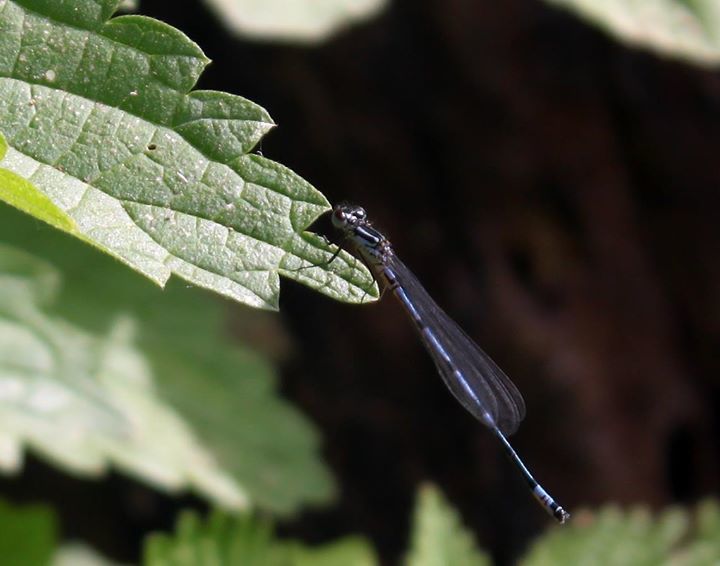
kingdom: Animalia
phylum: Arthropoda
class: Insecta
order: Odonata
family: Coenagrionidae
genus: Coenagrion
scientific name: Coenagrion puella
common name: Azure damselfly
